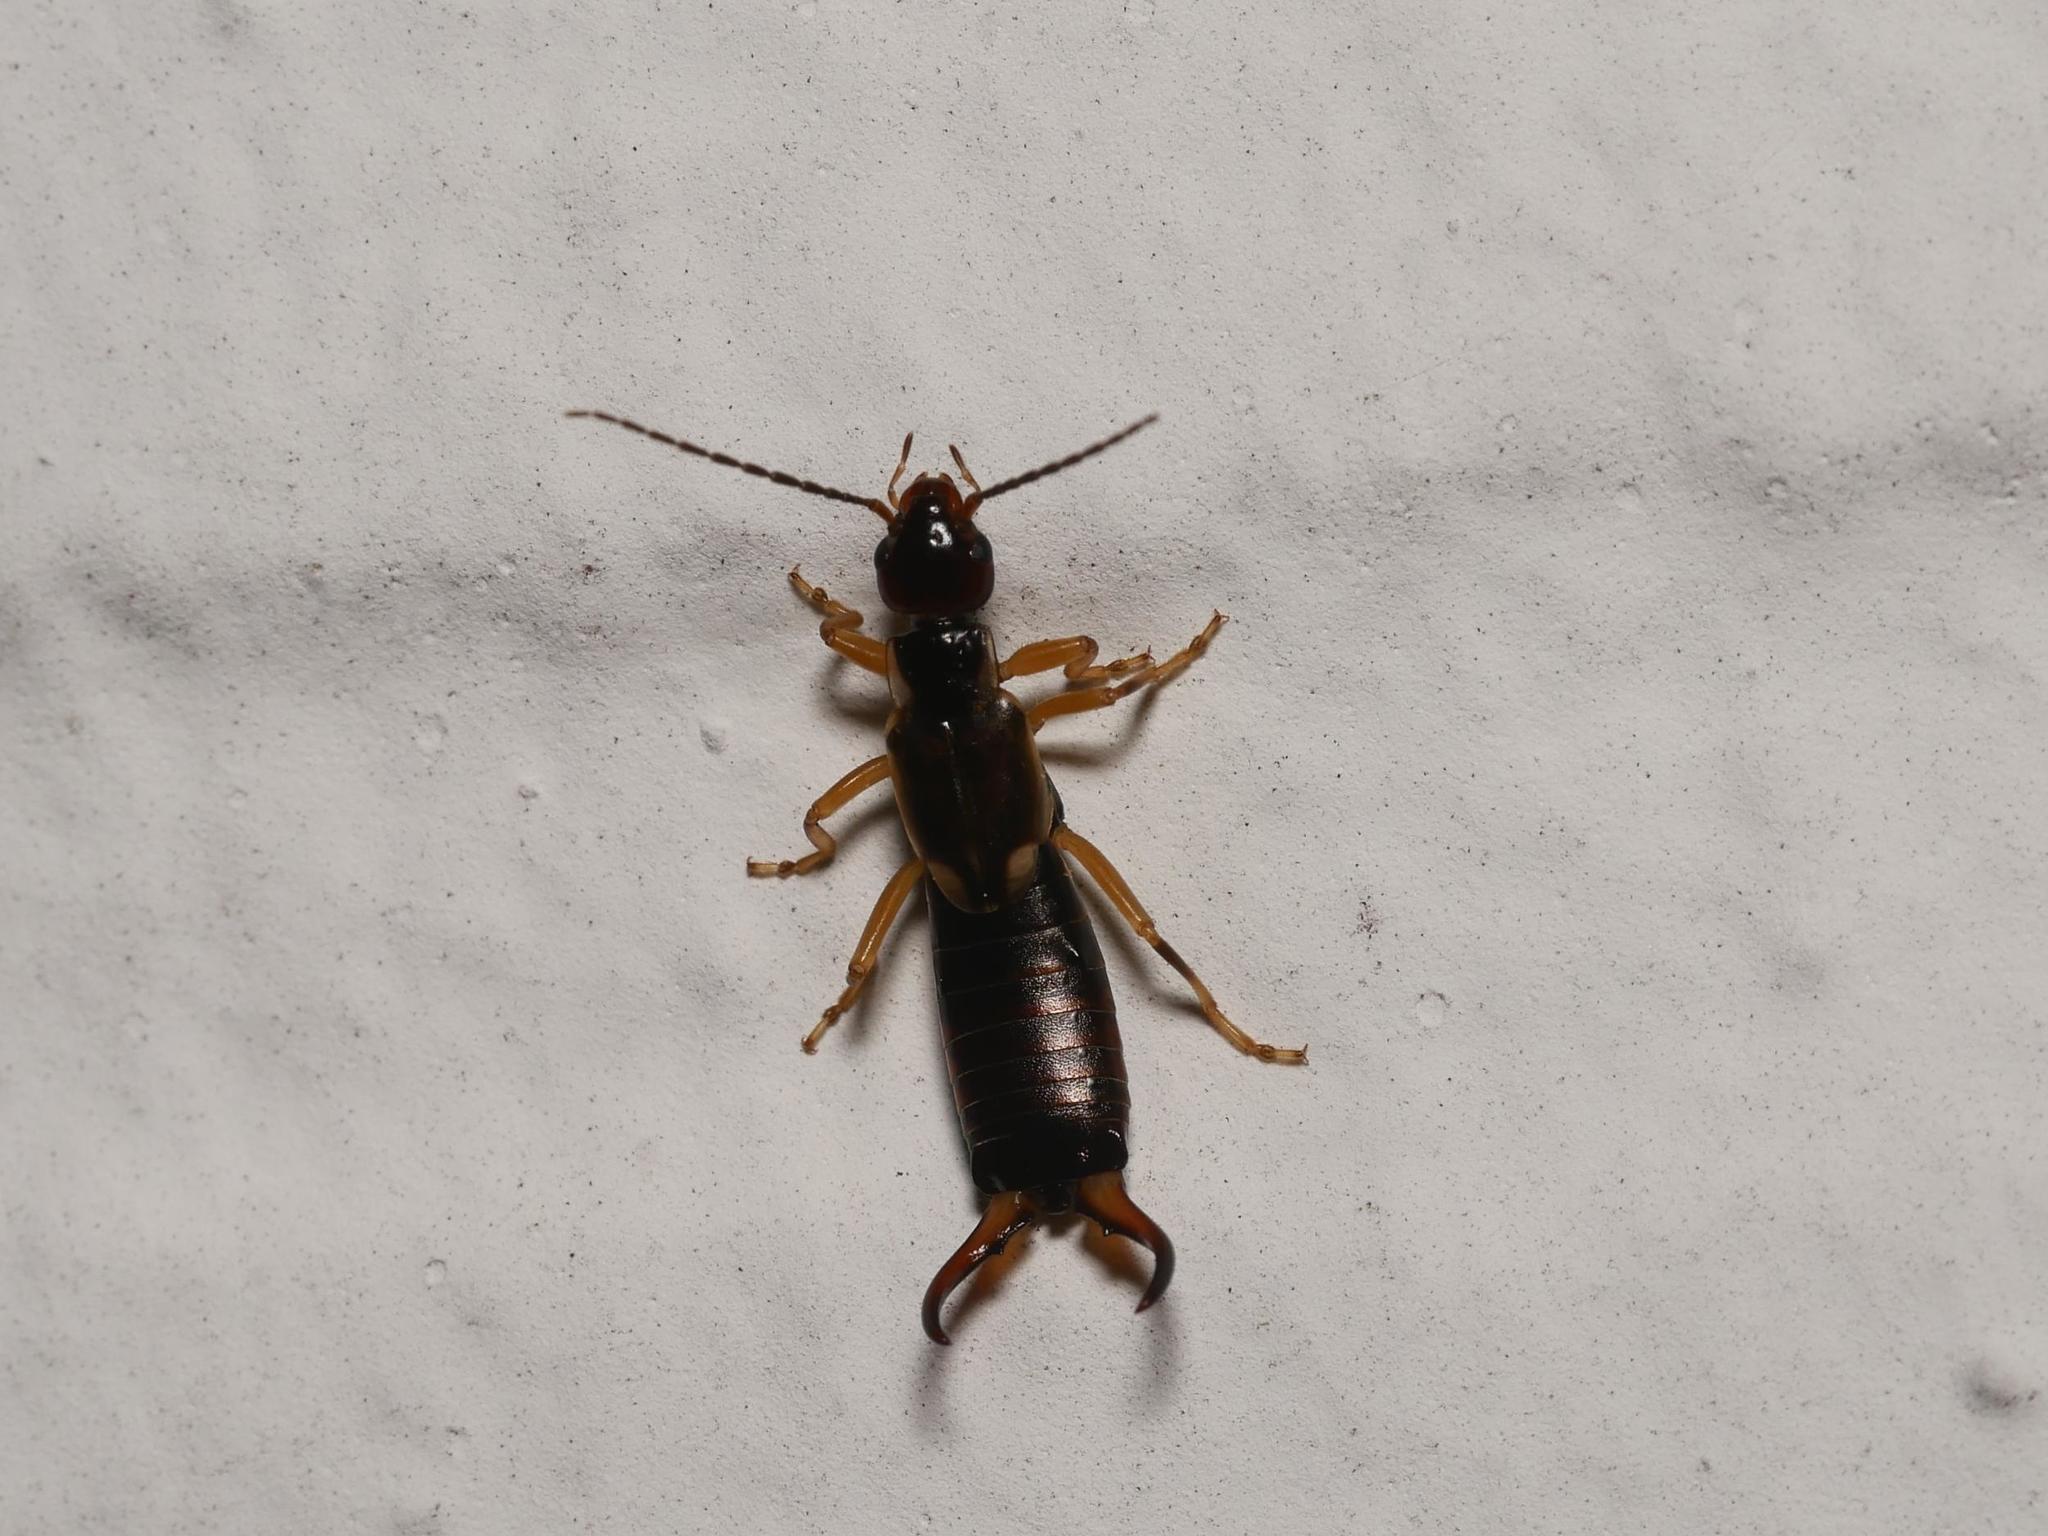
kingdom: Animalia
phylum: Arthropoda
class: Insecta
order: Dermaptera
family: Forficulidae
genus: Forficula
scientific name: Forficula
